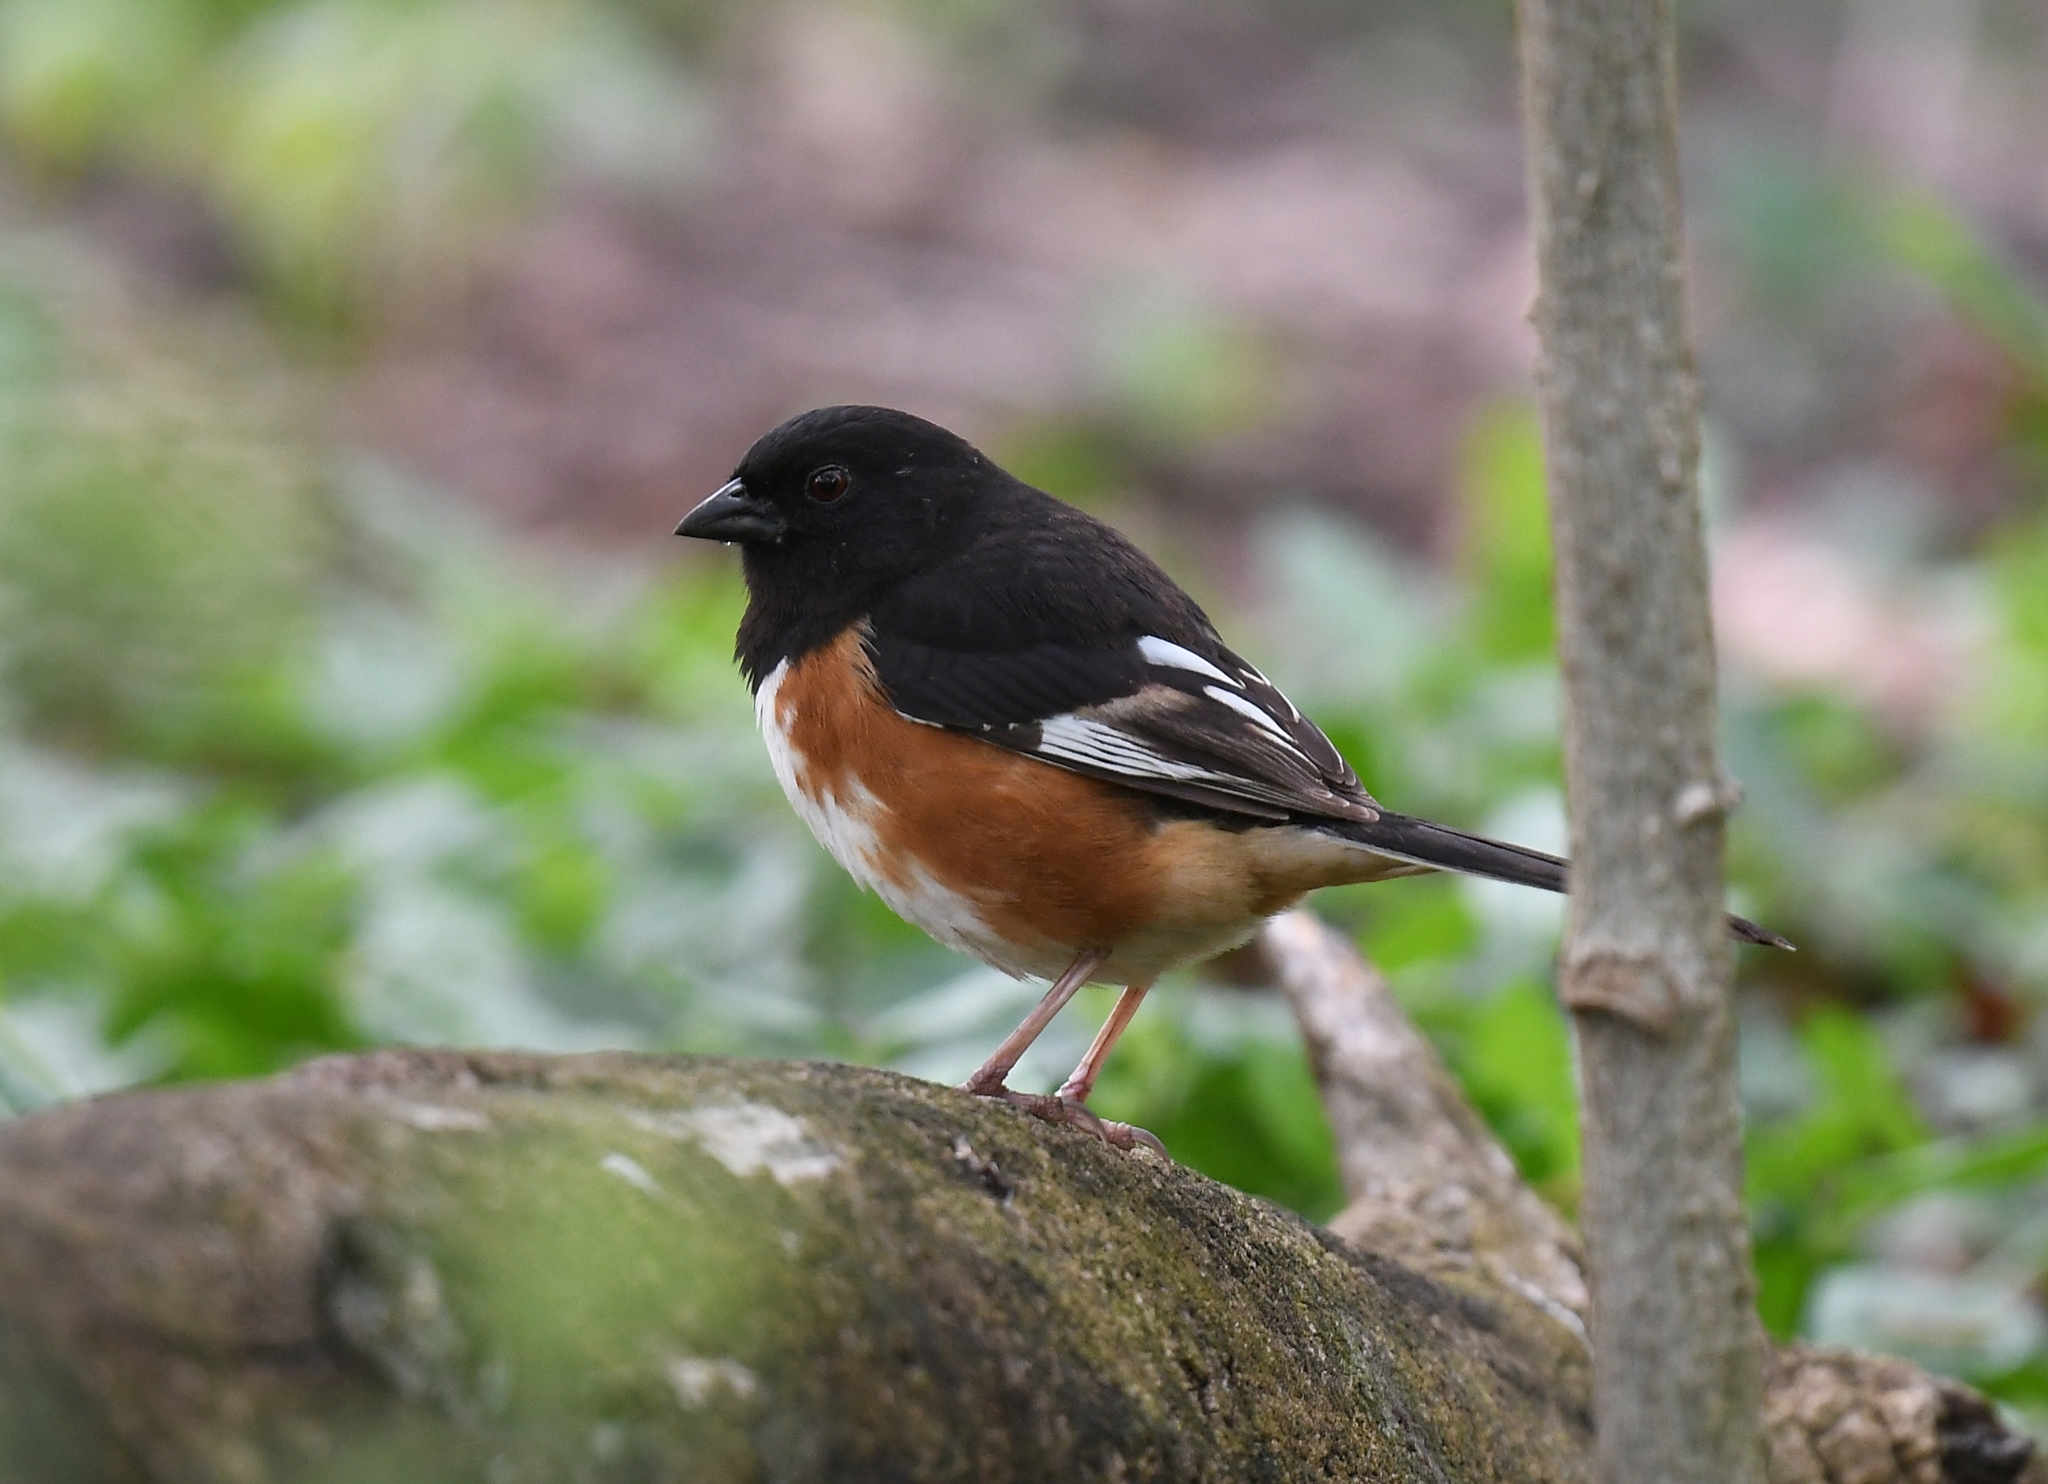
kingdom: Animalia
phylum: Chordata
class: Aves
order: Passeriformes
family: Passerellidae
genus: Pipilo
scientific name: Pipilo erythrophthalmus
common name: Eastern towhee
